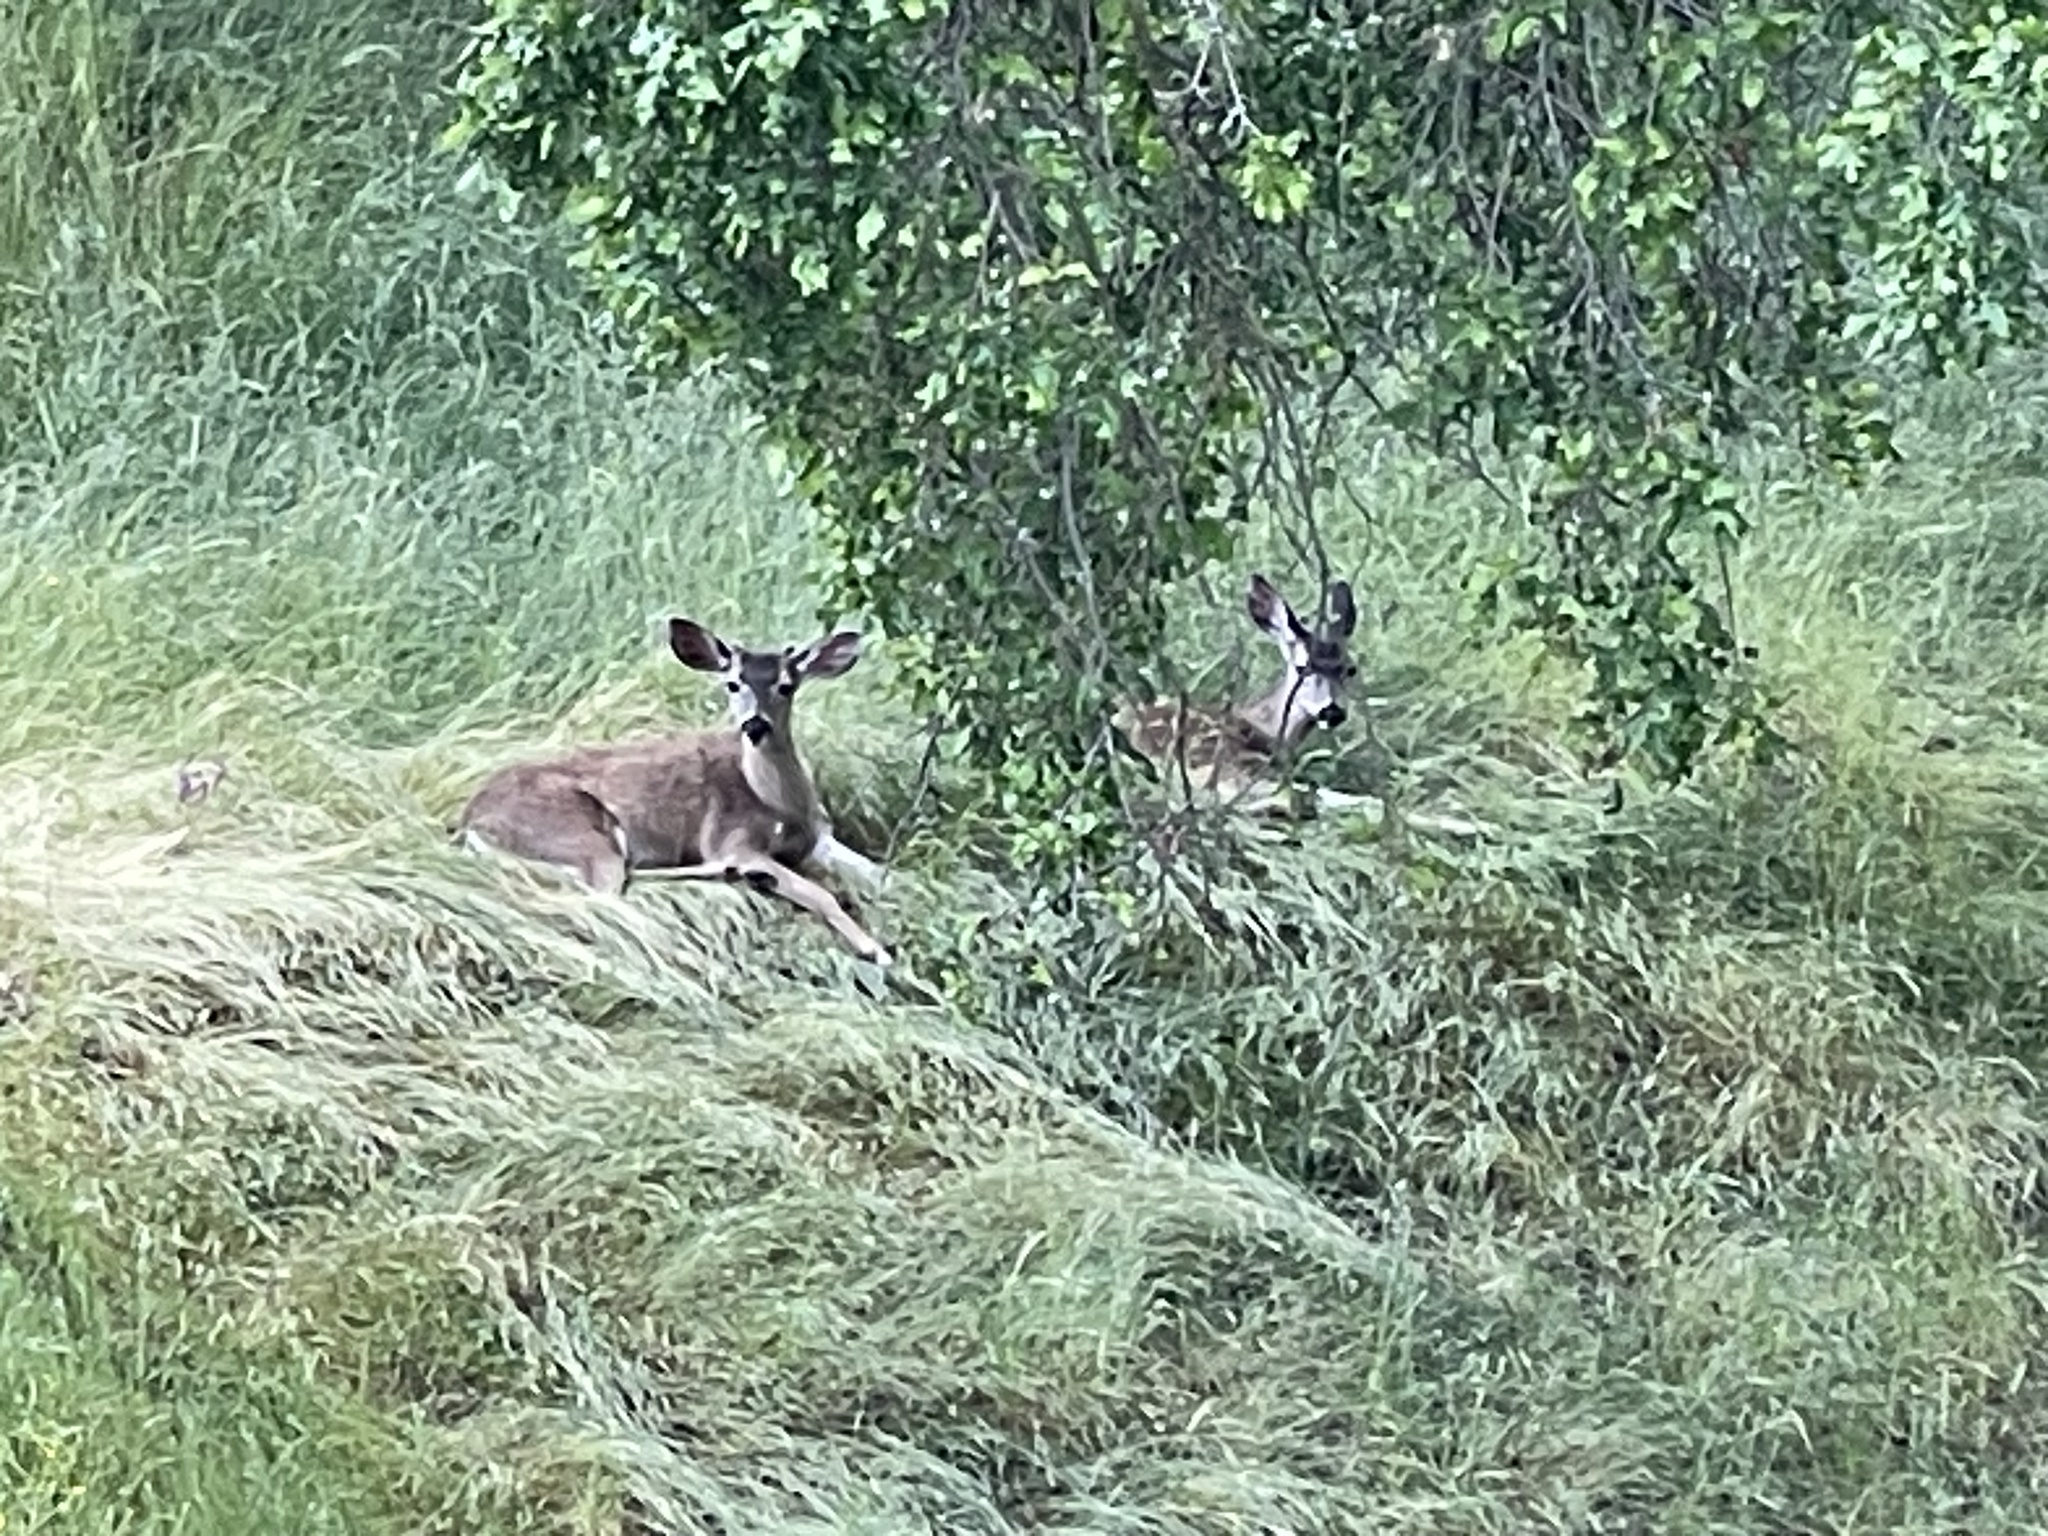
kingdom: Animalia
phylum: Chordata
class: Mammalia
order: Artiodactyla
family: Cervidae
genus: Odocoileus
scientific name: Odocoileus hemionus
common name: Mule deer
